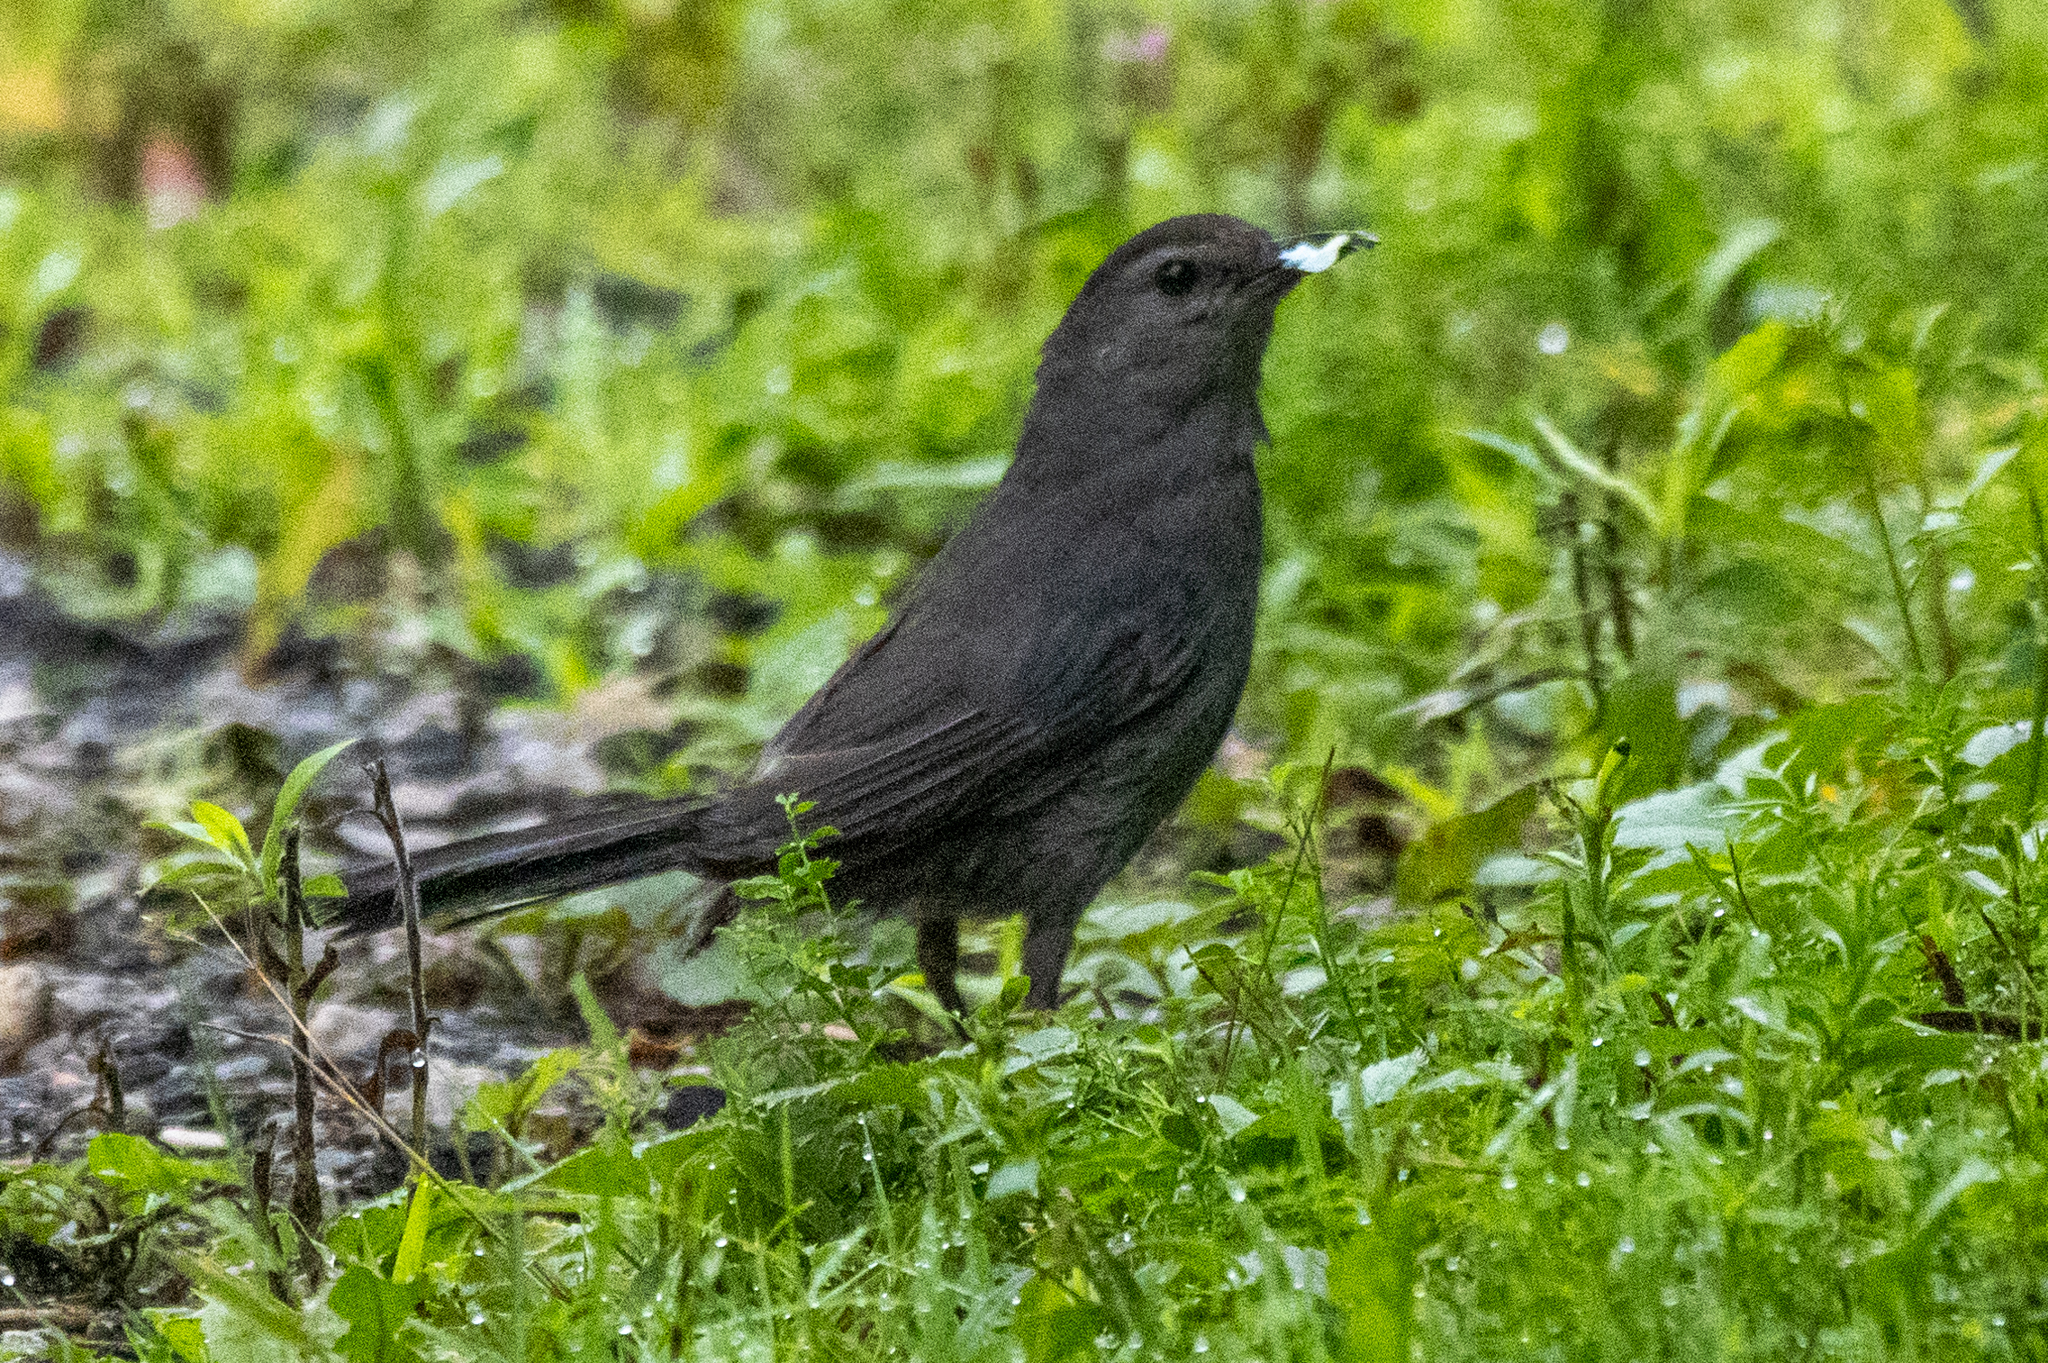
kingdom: Animalia
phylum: Chordata
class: Aves
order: Passeriformes
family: Mimidae
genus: Dumetella
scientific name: Dumetella carolinensis
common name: Gray catbird
